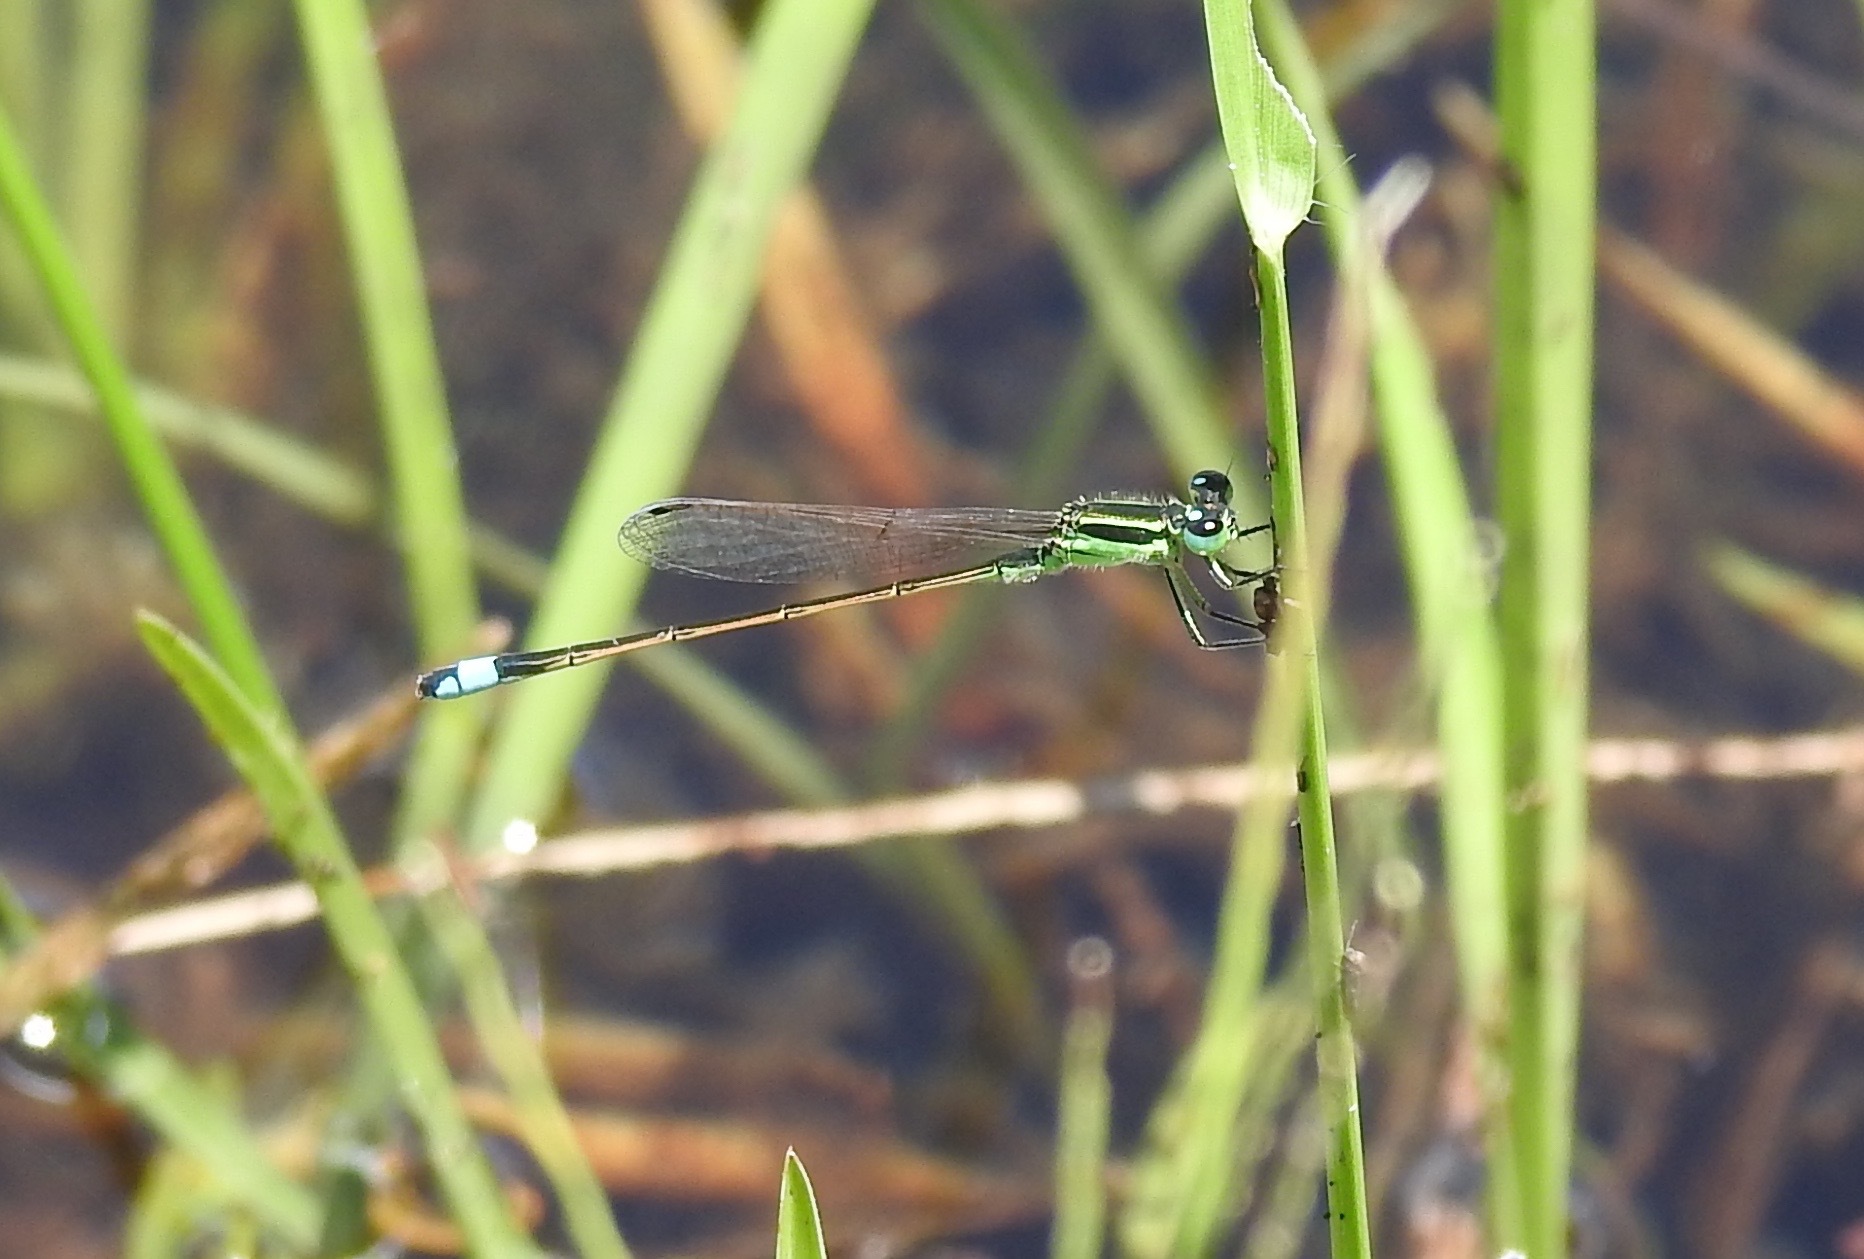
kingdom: Animalia
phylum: Arthropoda
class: Insecta
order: Odonata
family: Coenagrionidae
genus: Ischnura
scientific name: Ischnura ramburii
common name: Rambur's forktail
